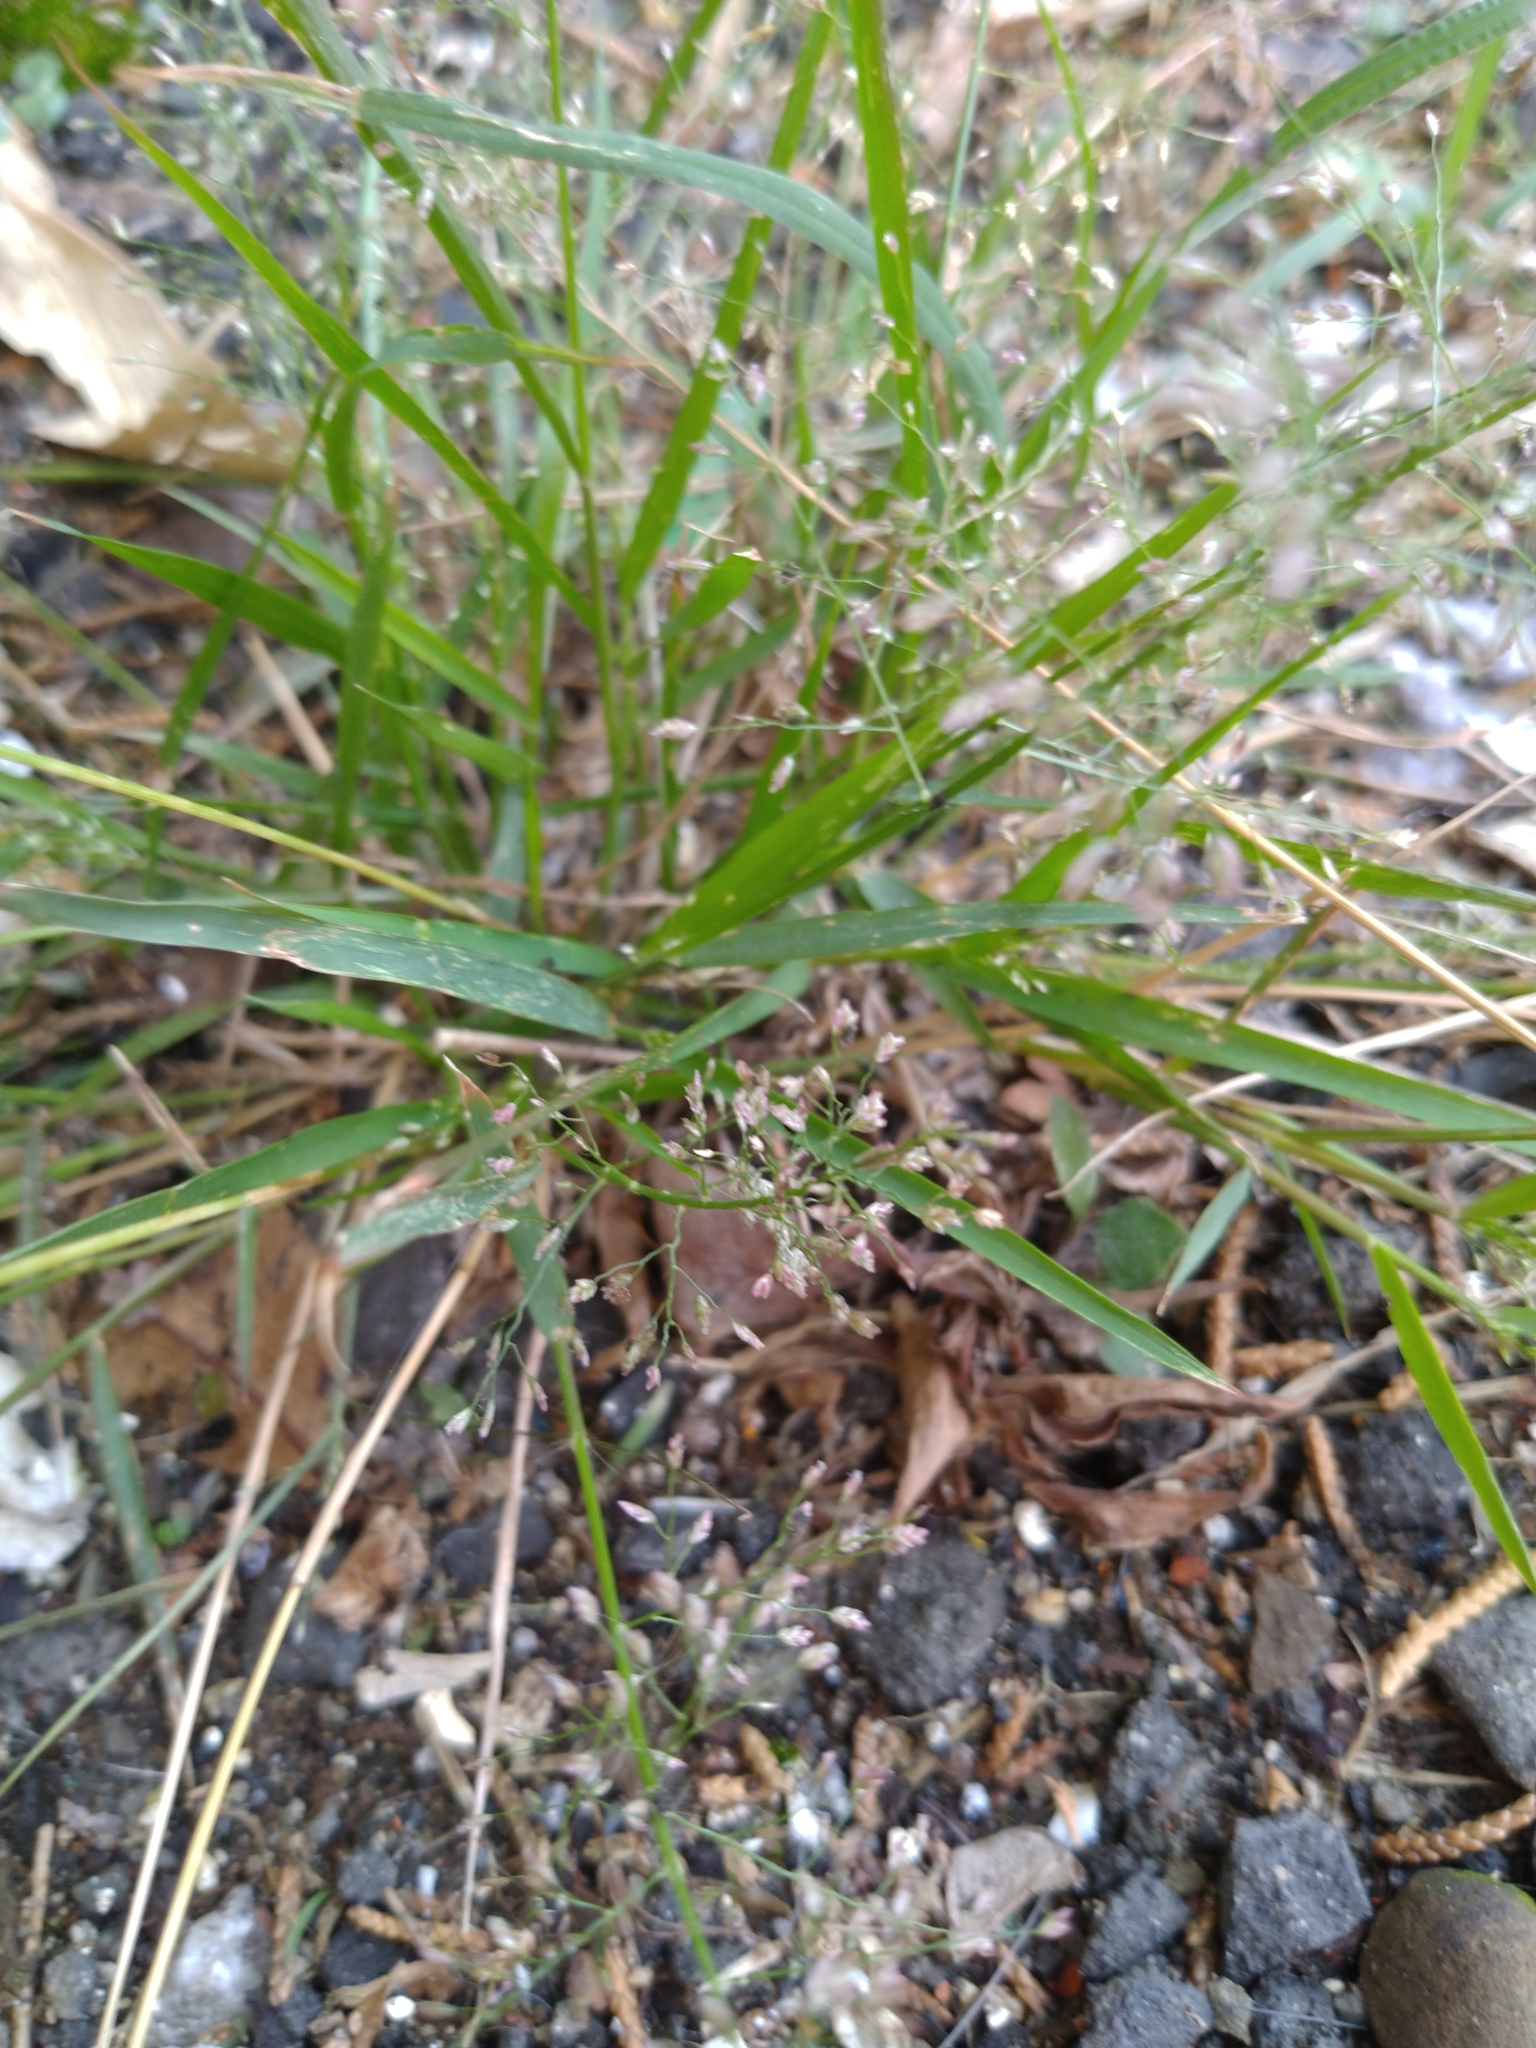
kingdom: Plantae
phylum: Tracheophyta
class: Liliopsida
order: Poales
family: Poaceae
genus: Eragrostis
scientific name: Eragrostis tenella
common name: Japanese lovegrass
